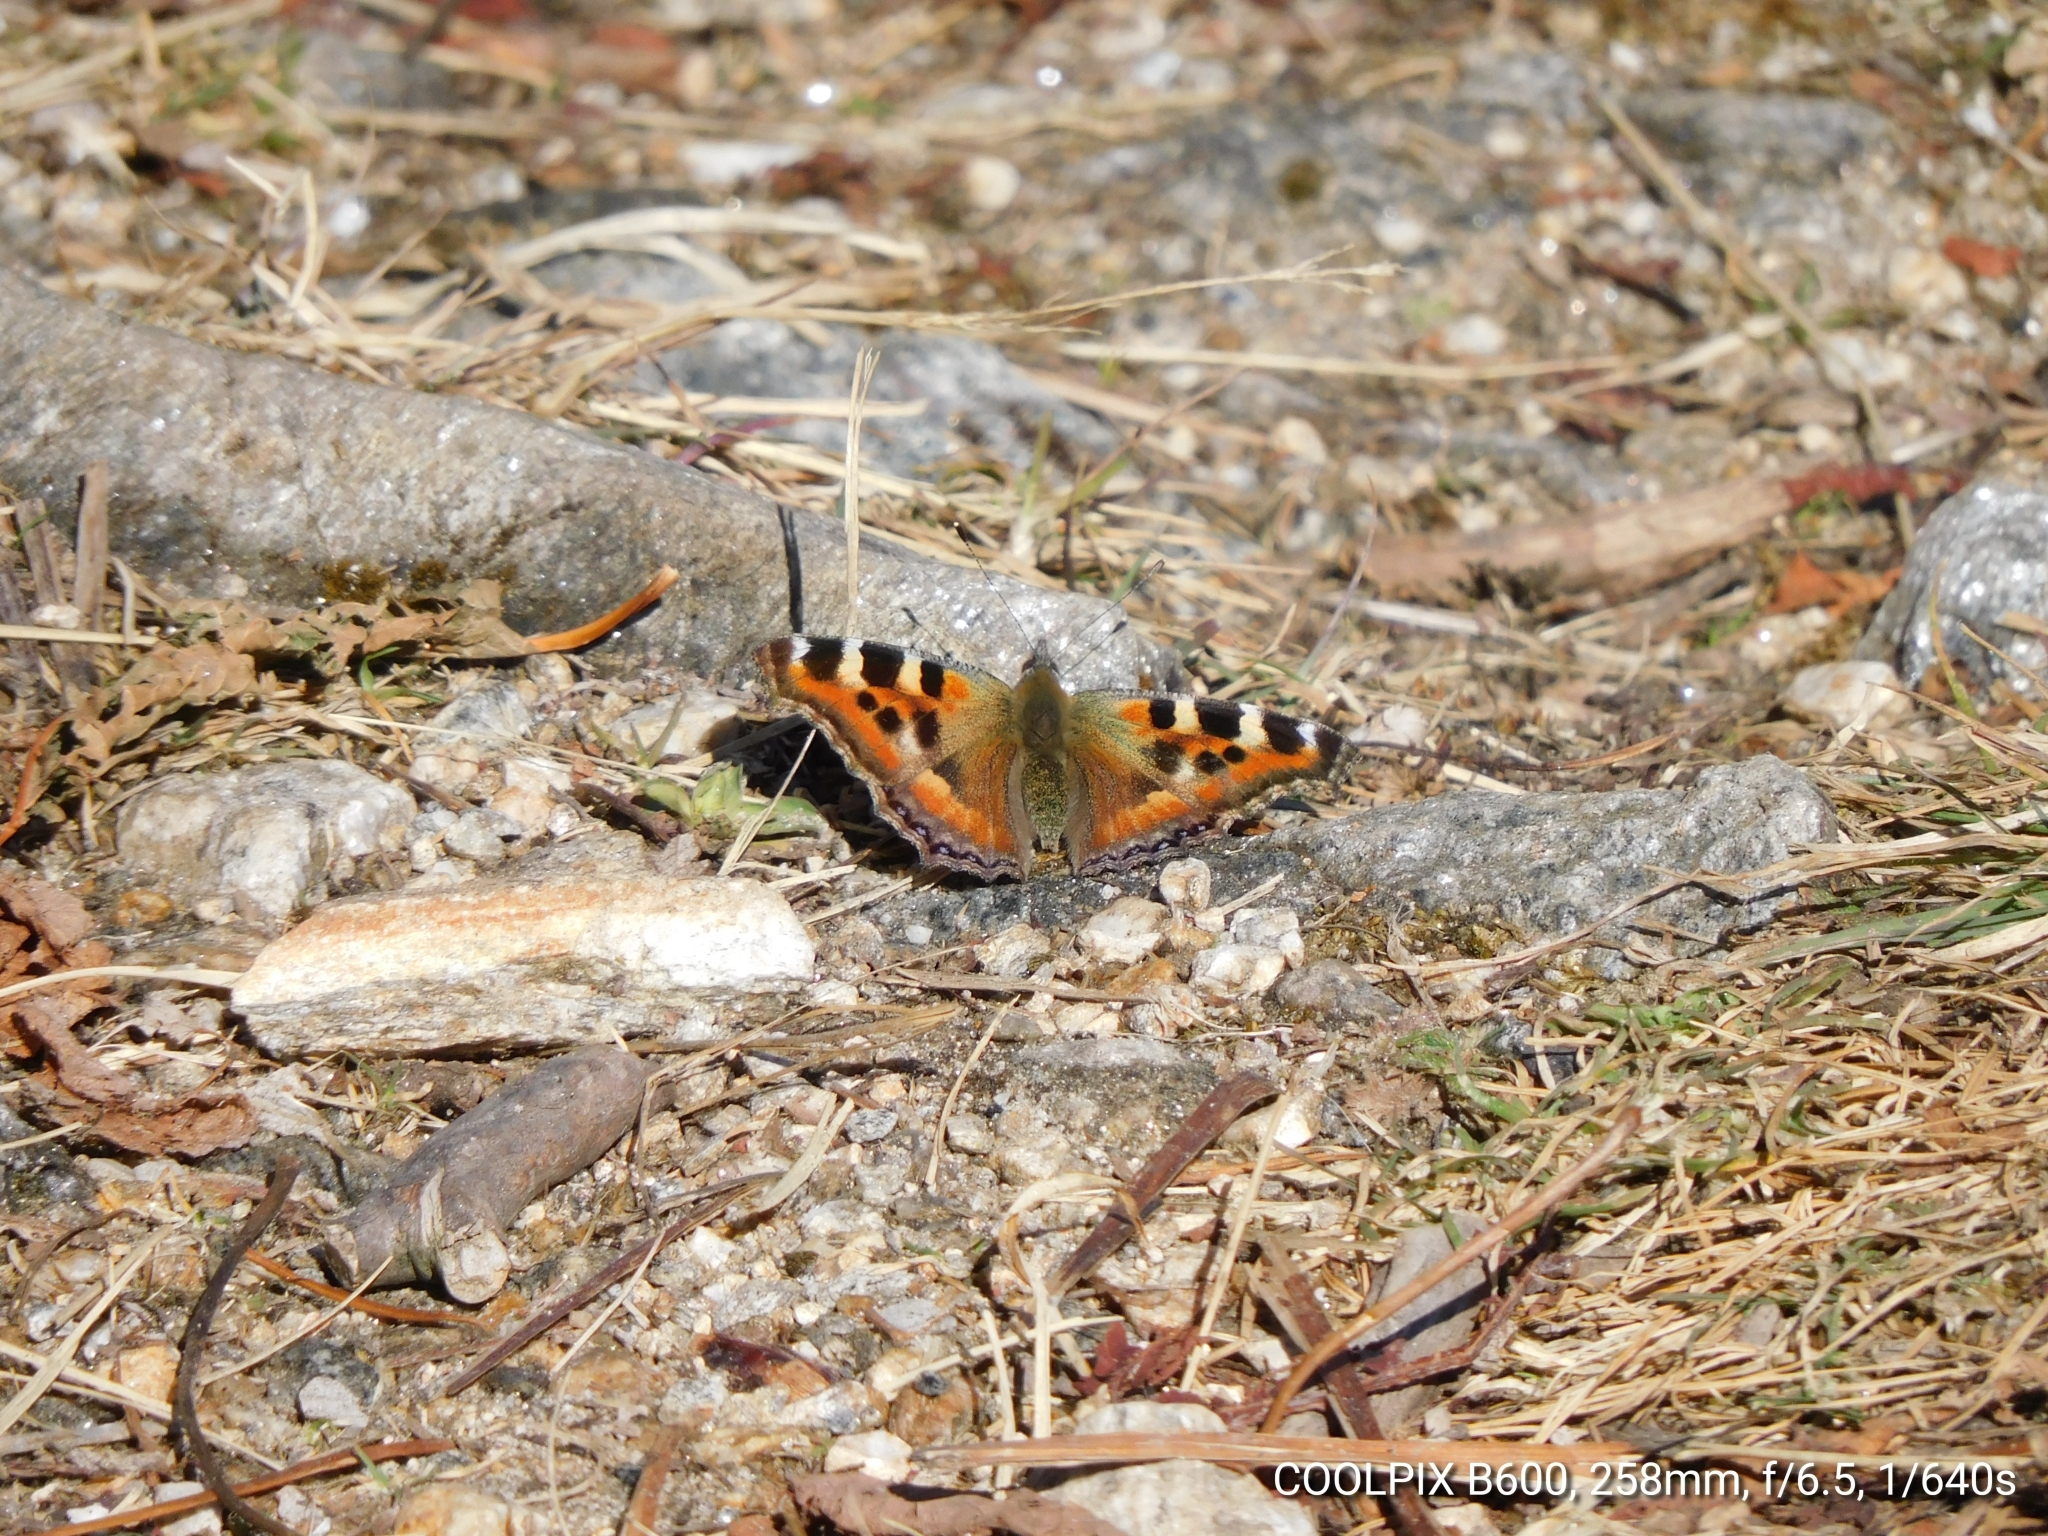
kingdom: Animalia
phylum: Arthropoda
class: Insecta
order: Lepidoptera
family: Nymphalidae
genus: Aglais
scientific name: Aglais caschmirensis
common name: Indian tortoiseshell
